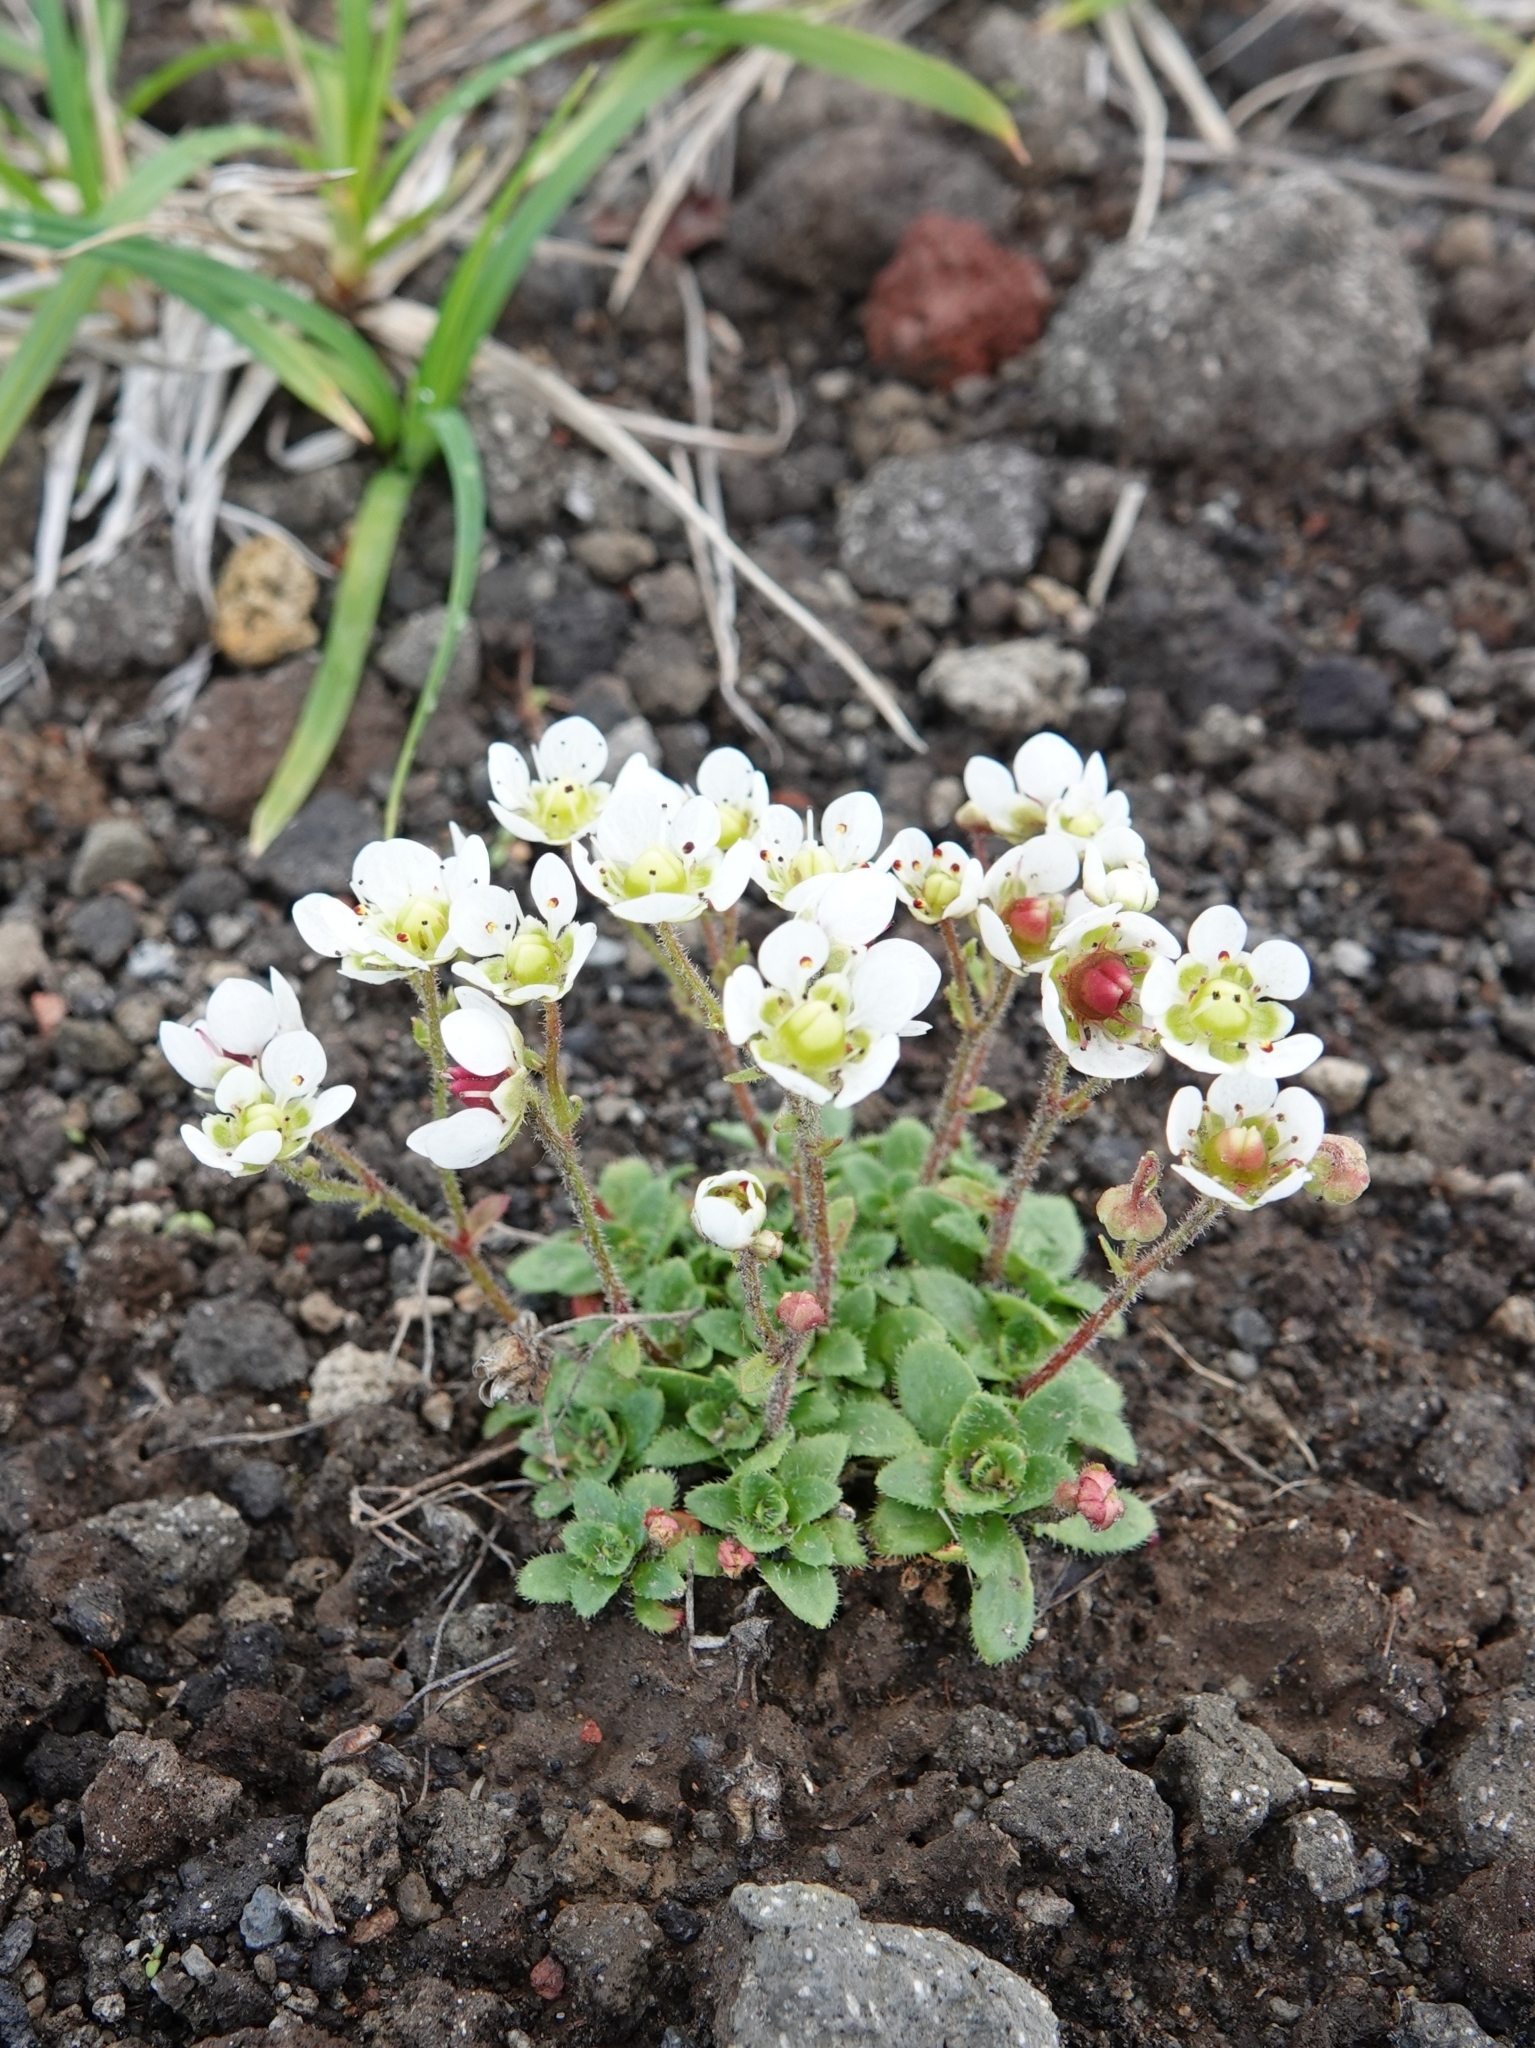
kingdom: Plantae
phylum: Tracheophyta
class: Magnoliopsida
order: Saxifragales
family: Saxifragaceae
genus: Micranthes
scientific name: Micranthes merkii
